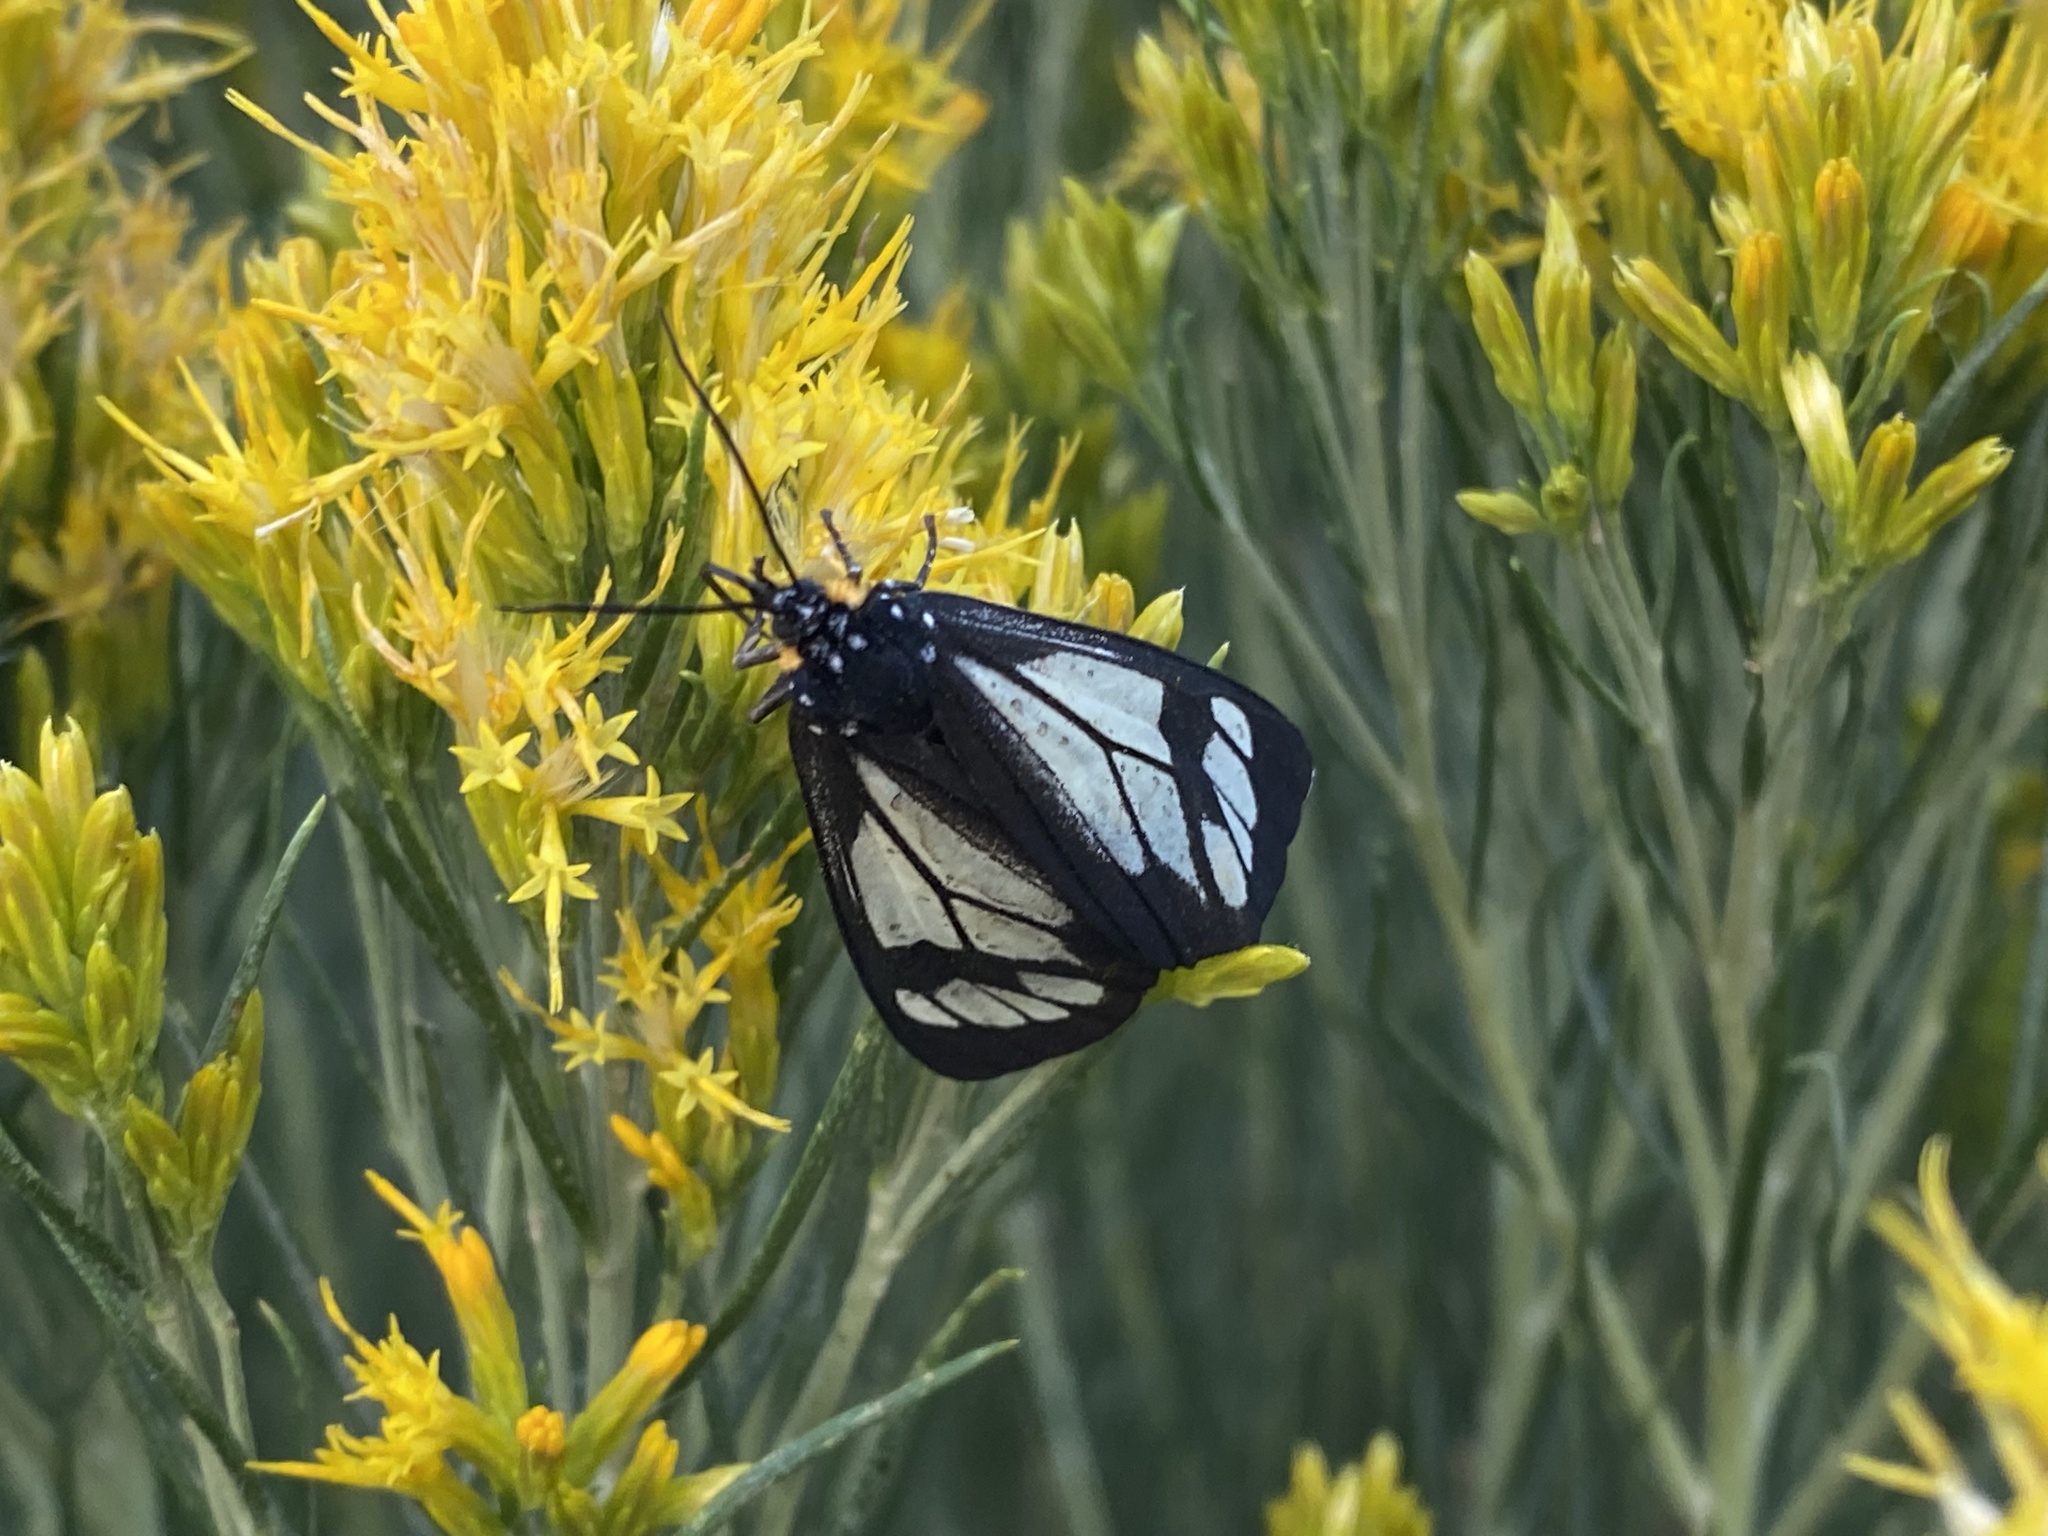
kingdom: Animalia
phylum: Arthropoda
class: Insecta
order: Lepidoptera
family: Erebidae
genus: Gnophaela
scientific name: Gnophaela vermiculata
